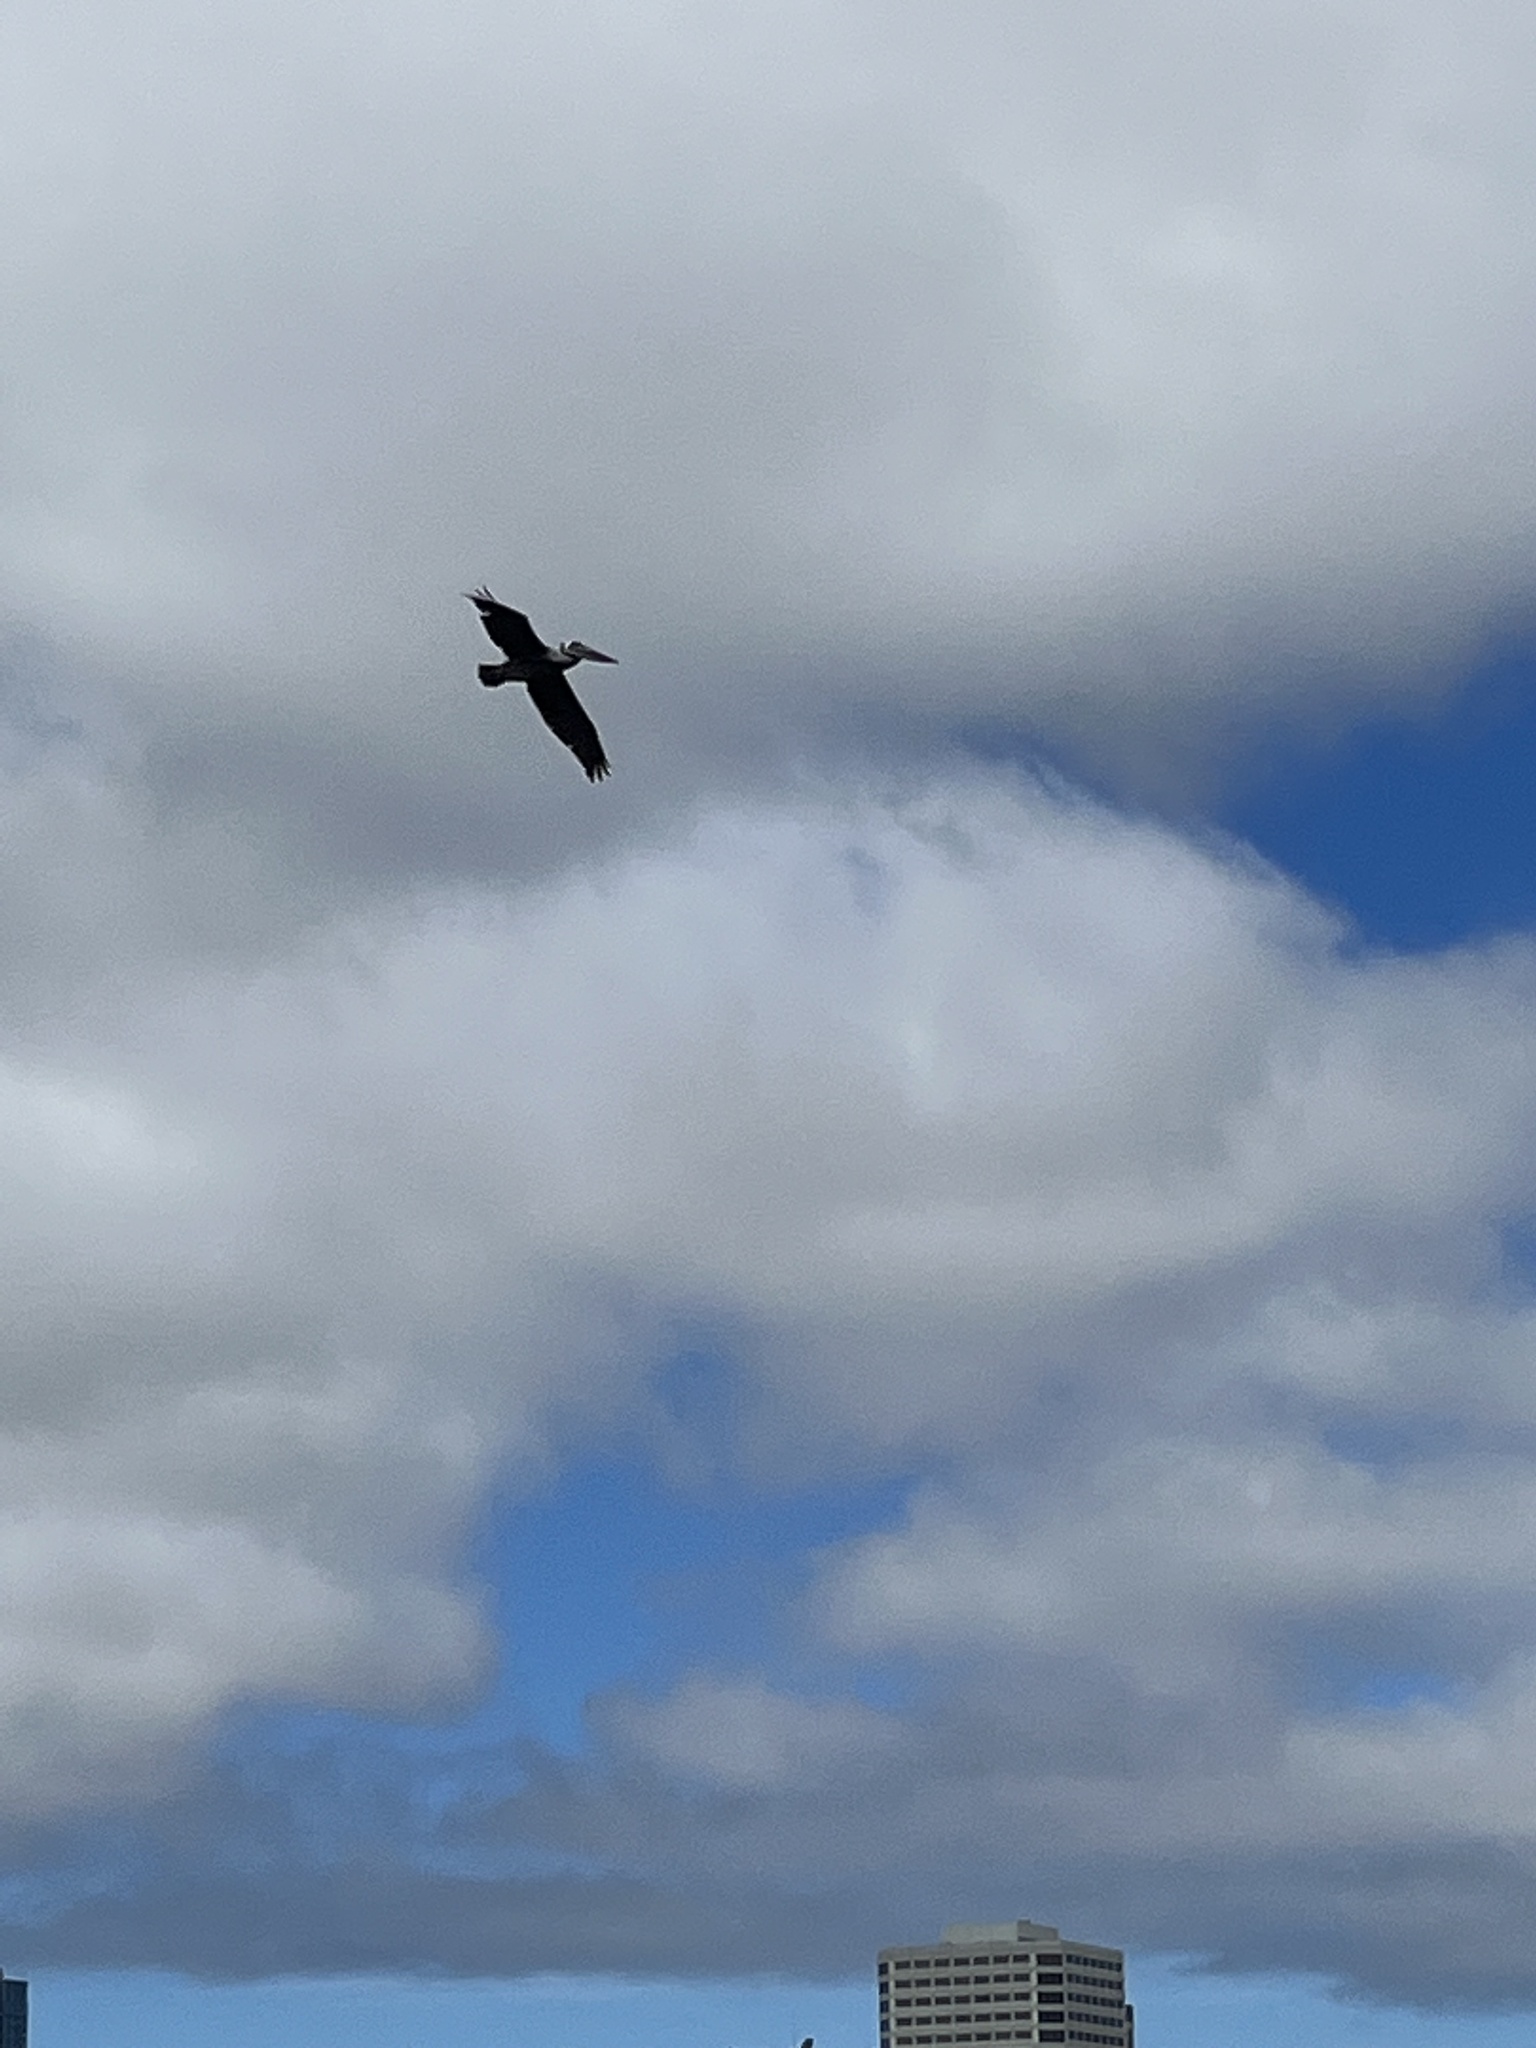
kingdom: Animalia
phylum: Chordata
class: Aves
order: Pelecaniformes
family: Pelecanidae
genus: Pelecanus
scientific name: Pelecanus occidentalis
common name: Brown pelican
